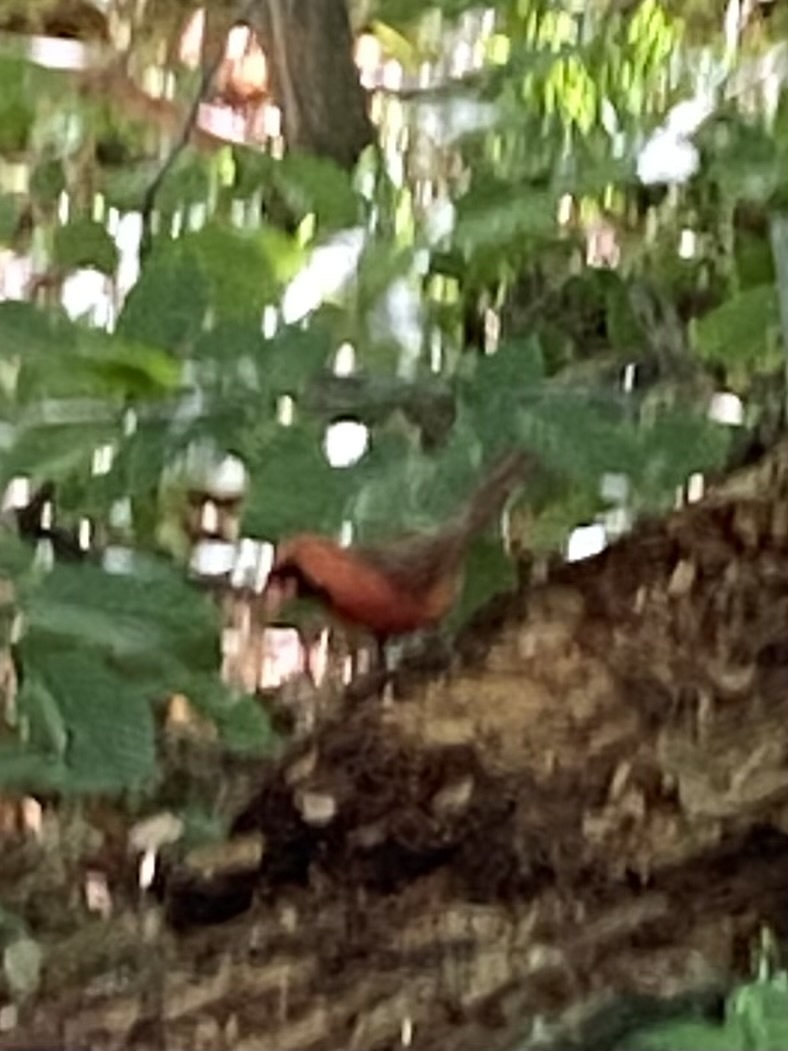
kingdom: Animalia
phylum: Chordata
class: Aves
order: Passeriformes
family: Cardinalidae
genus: Cardinalis
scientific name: Cardinalis cardinalis
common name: Northern cardinal
